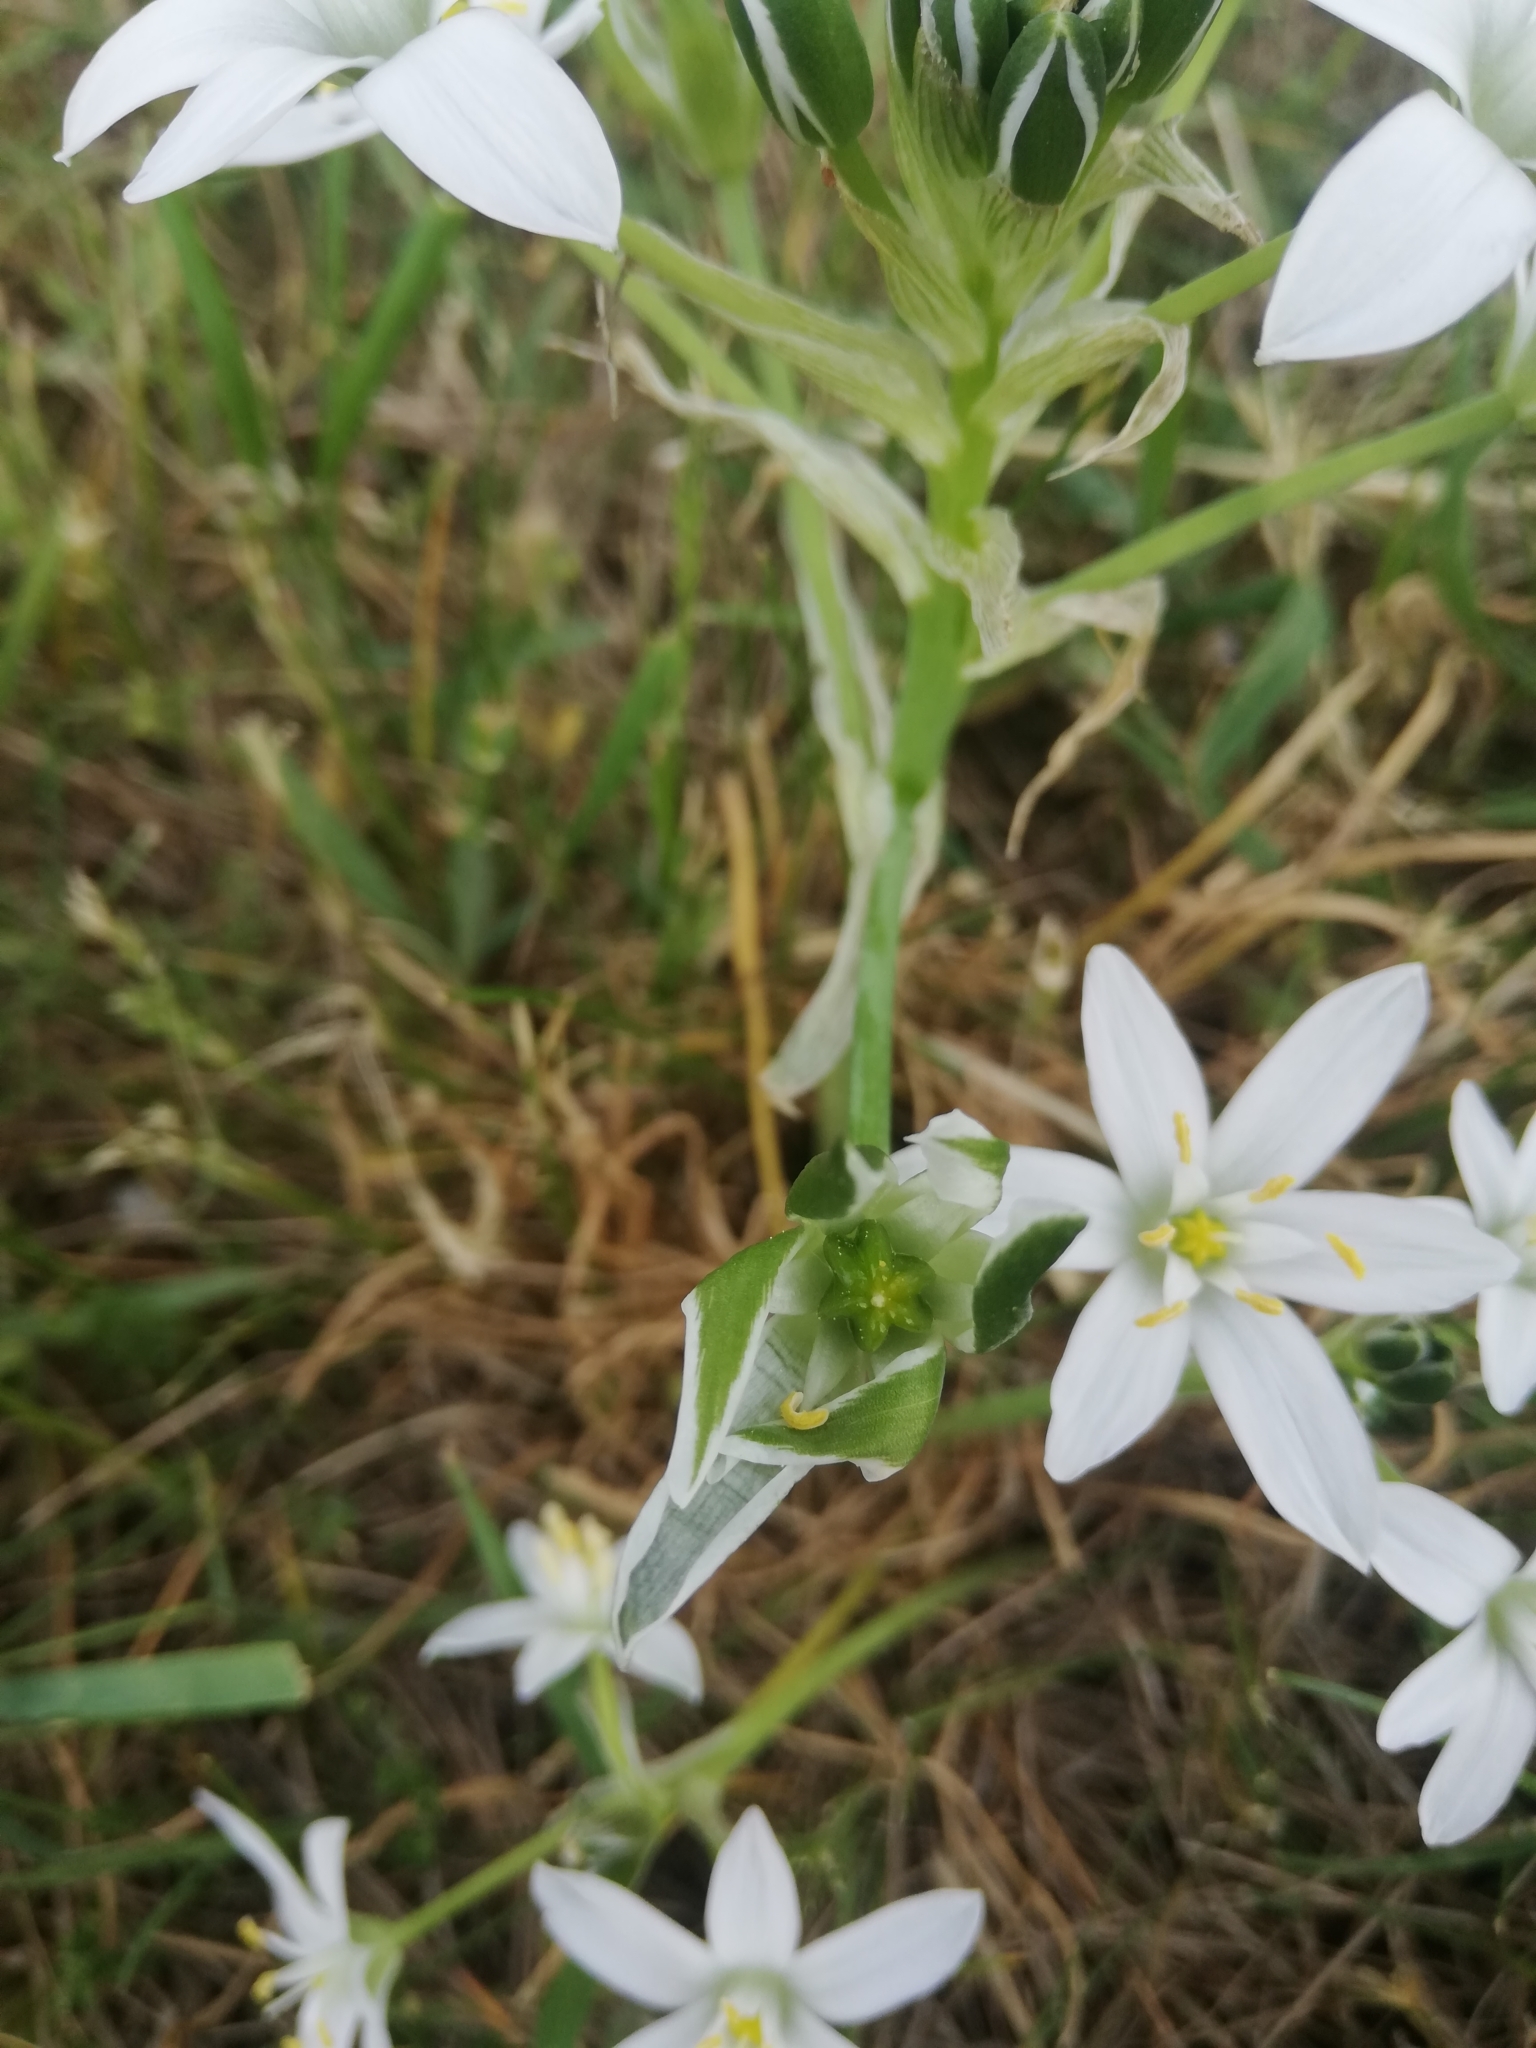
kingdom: Plantae
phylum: Tracheophyta
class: Liliopsida
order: Asparagales
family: Asparagaceae
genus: Ornithogalum
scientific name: Ornithogalum umbellatum
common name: Garden star-of-bethlehem
